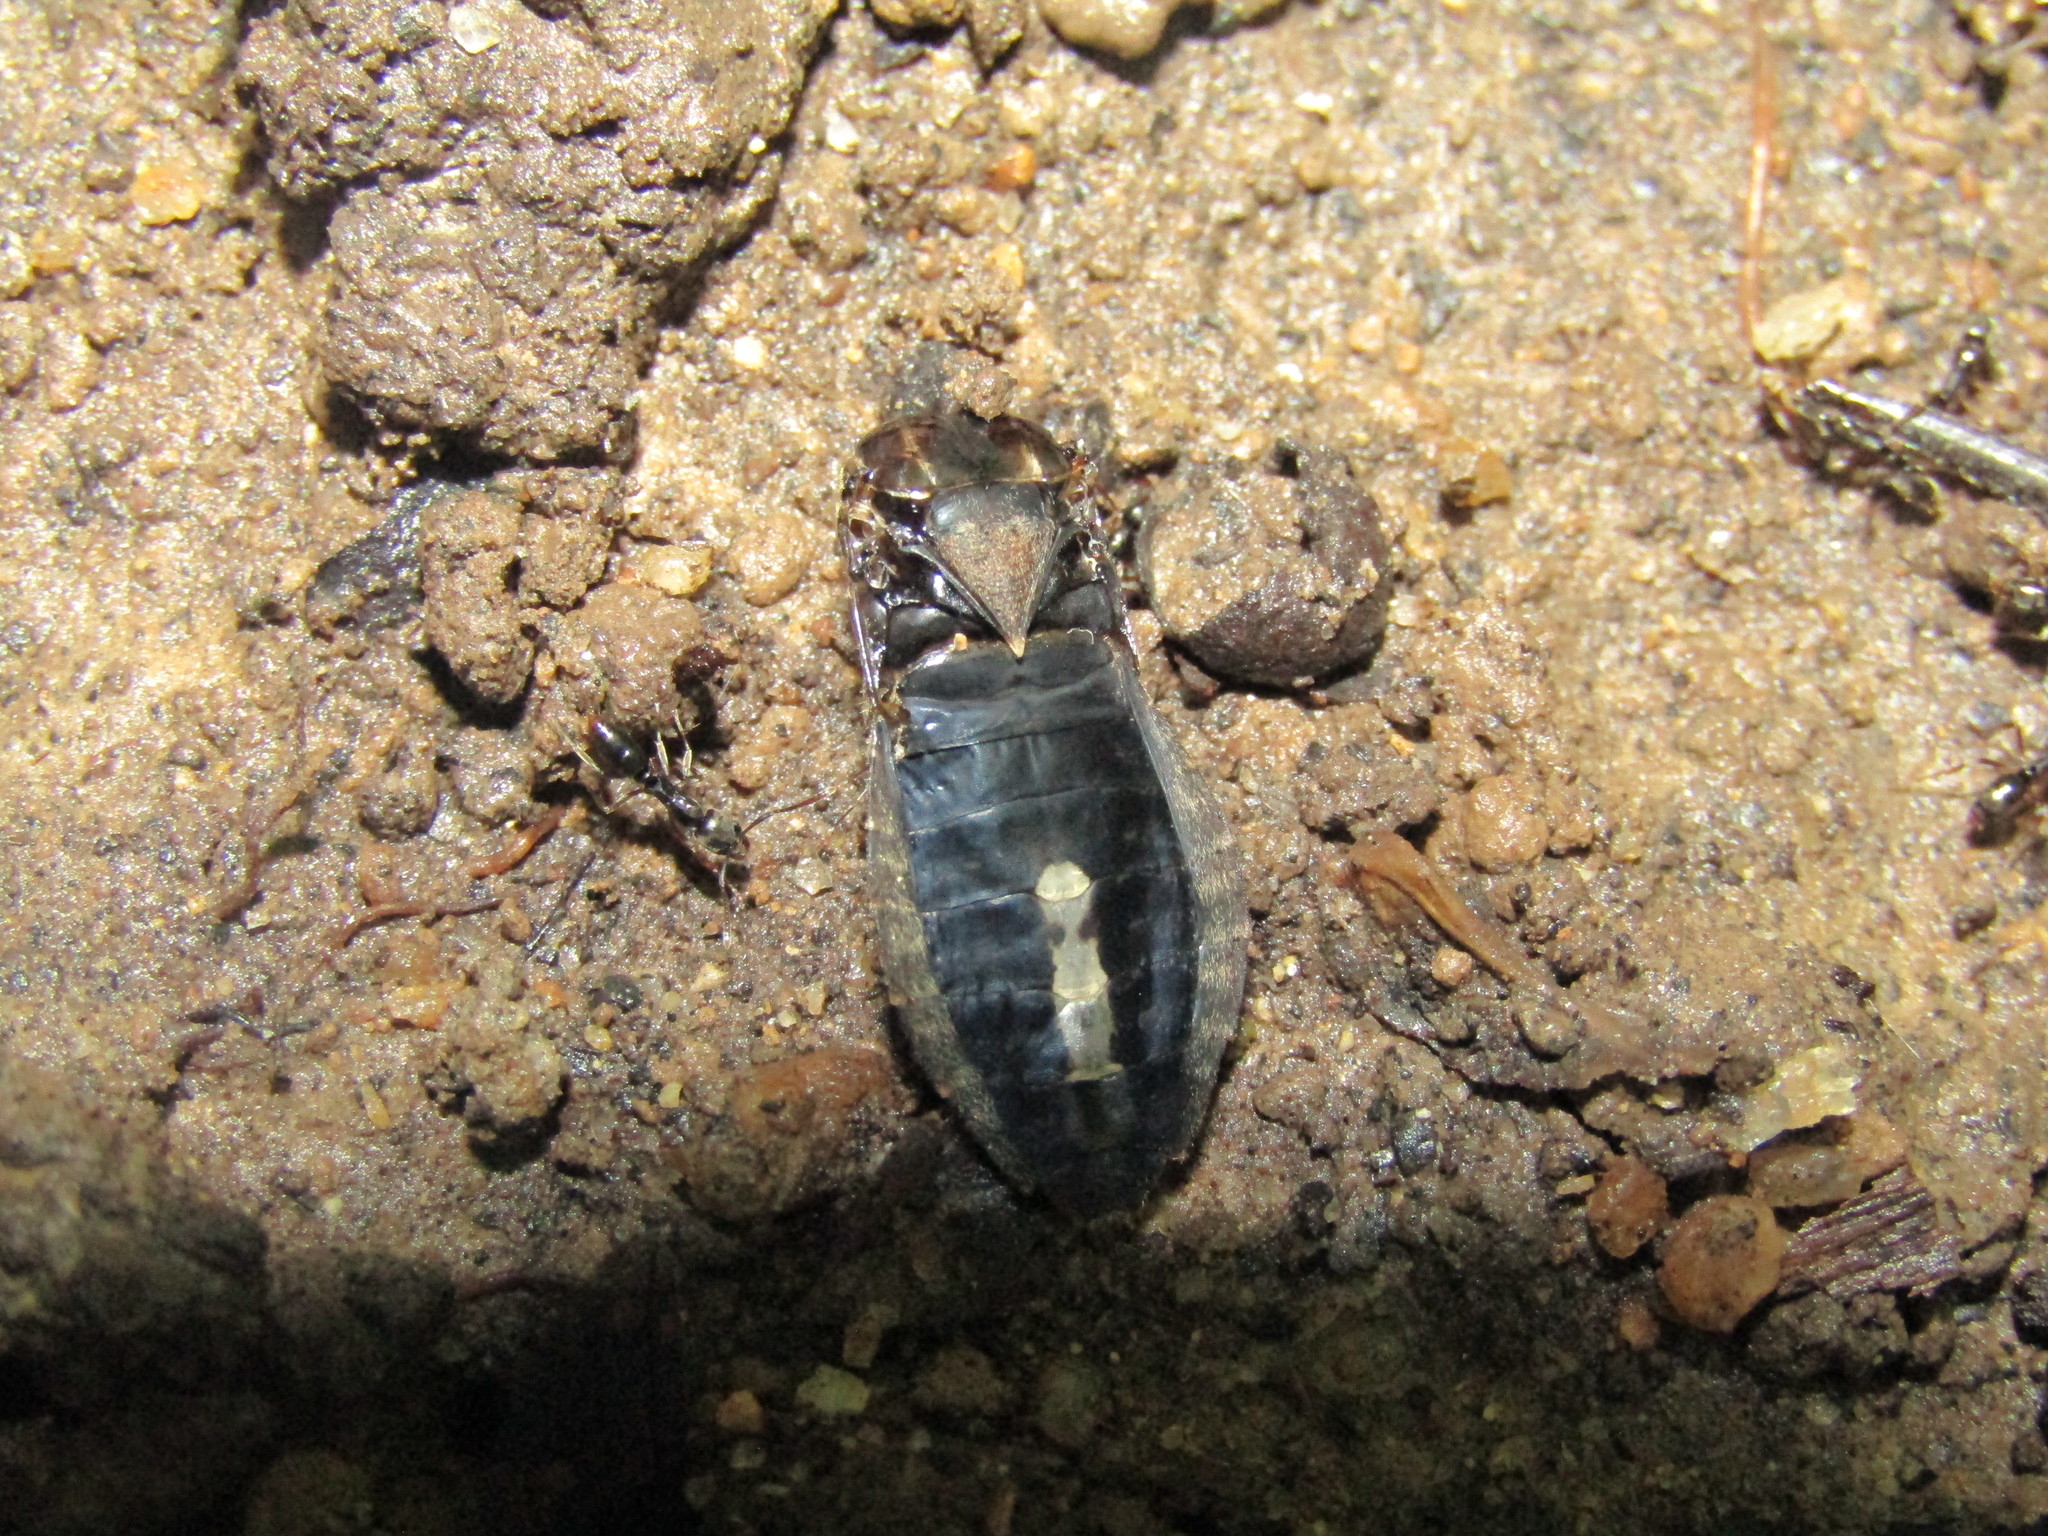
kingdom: Animalia
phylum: Arthropoda
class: Insecta
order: Hemiptera
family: Coreidae
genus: Acanthocephala
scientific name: Acanthocephala terminalis
